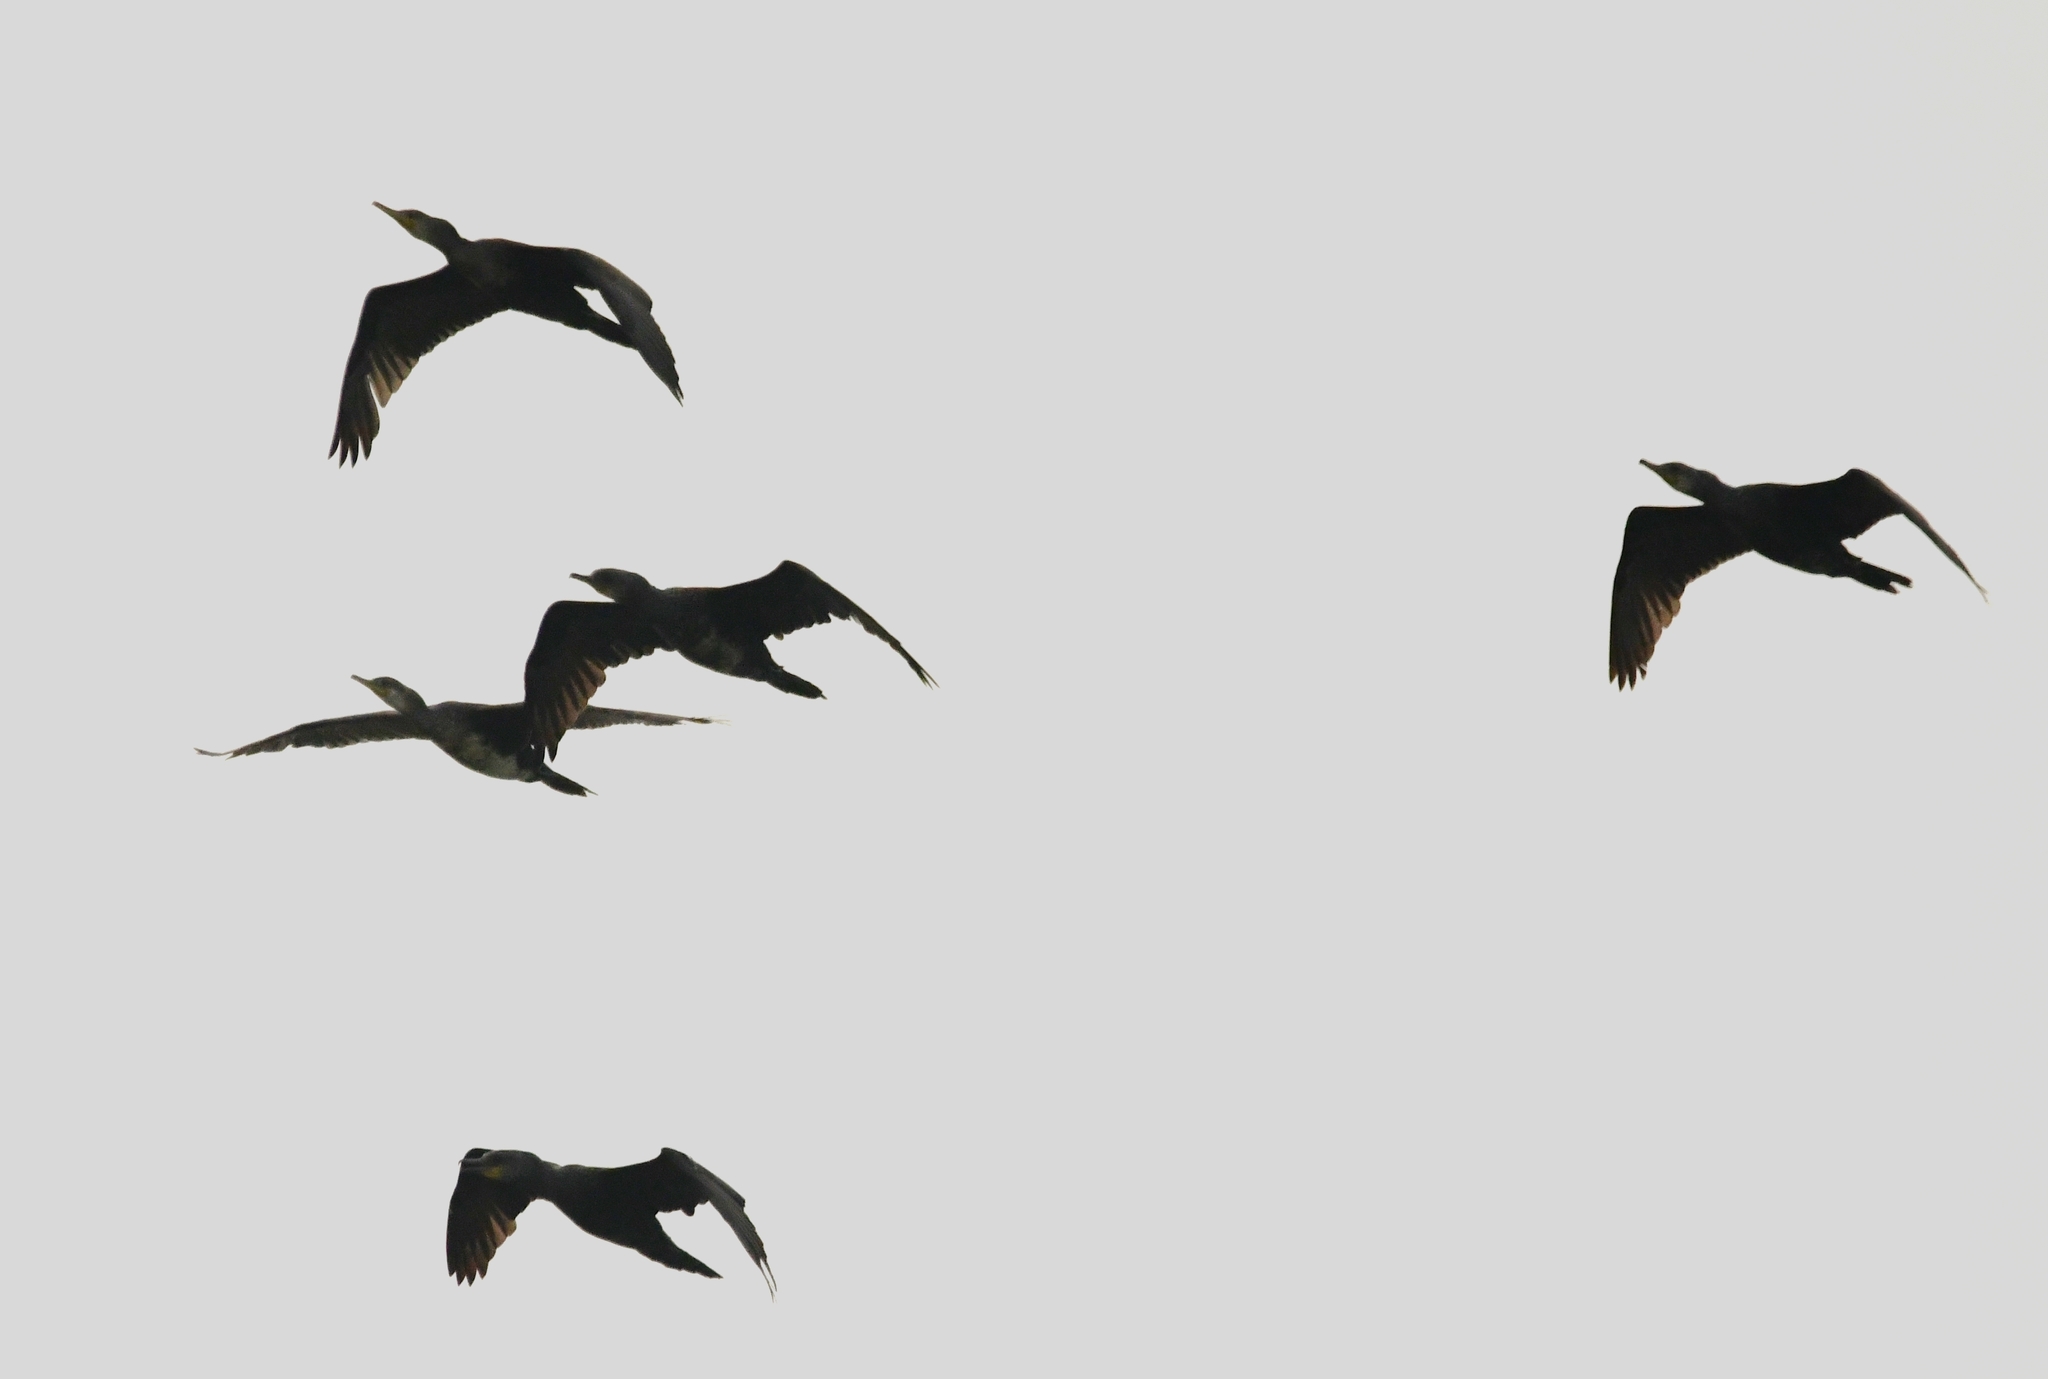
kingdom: Animalia
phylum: Chordata
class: Aves
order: Suliformes
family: Phalacrocoracidae
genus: Phalacrocorax
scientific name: Phalacrocorax carbo
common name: Great cormorant
